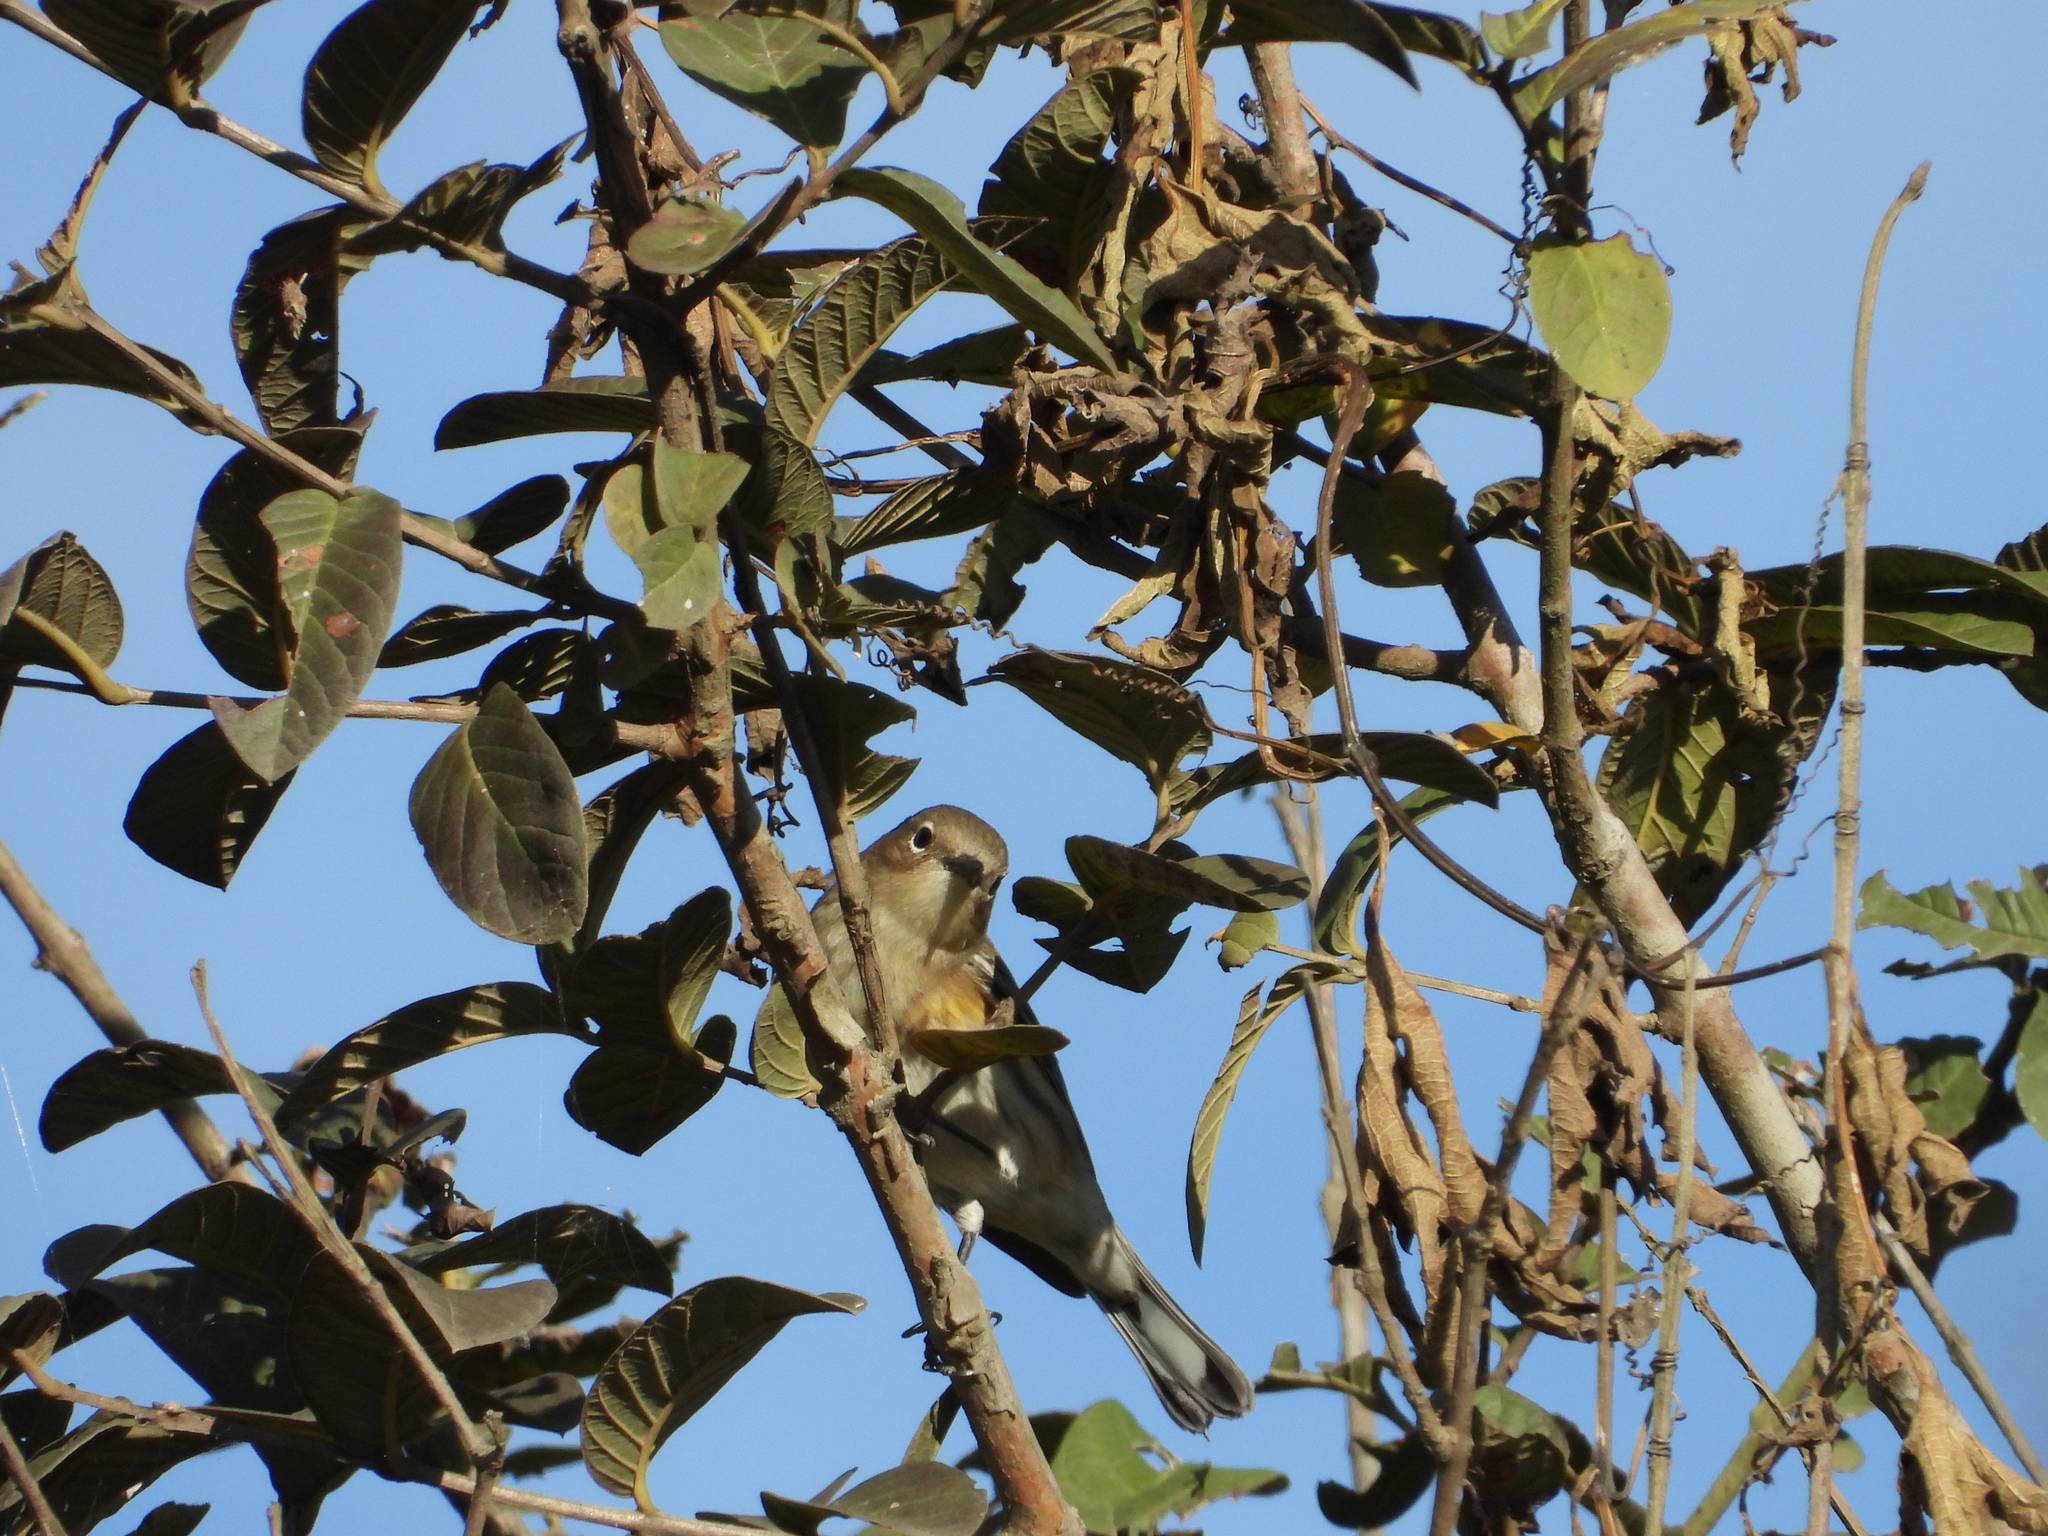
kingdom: Animalia
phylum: Chordata
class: Aves
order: Passeriformes
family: Parulidae
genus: Setophaga
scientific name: Setophaga coronata
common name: Myrtle warbler
